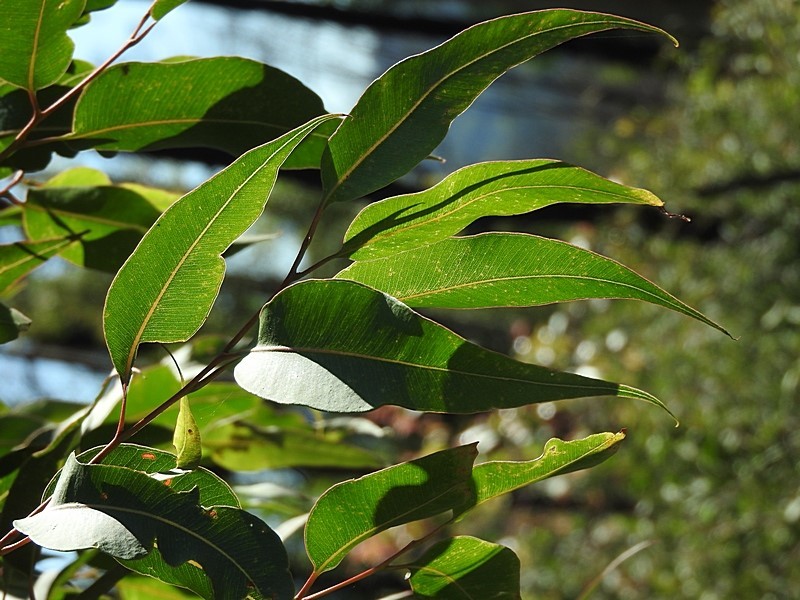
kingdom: Plantae
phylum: Tracheophyta
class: Magnoliopsida
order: Myrtales
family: Myrtaceae
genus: Corymbia
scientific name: Corymbia maculata
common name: Spotted gum
